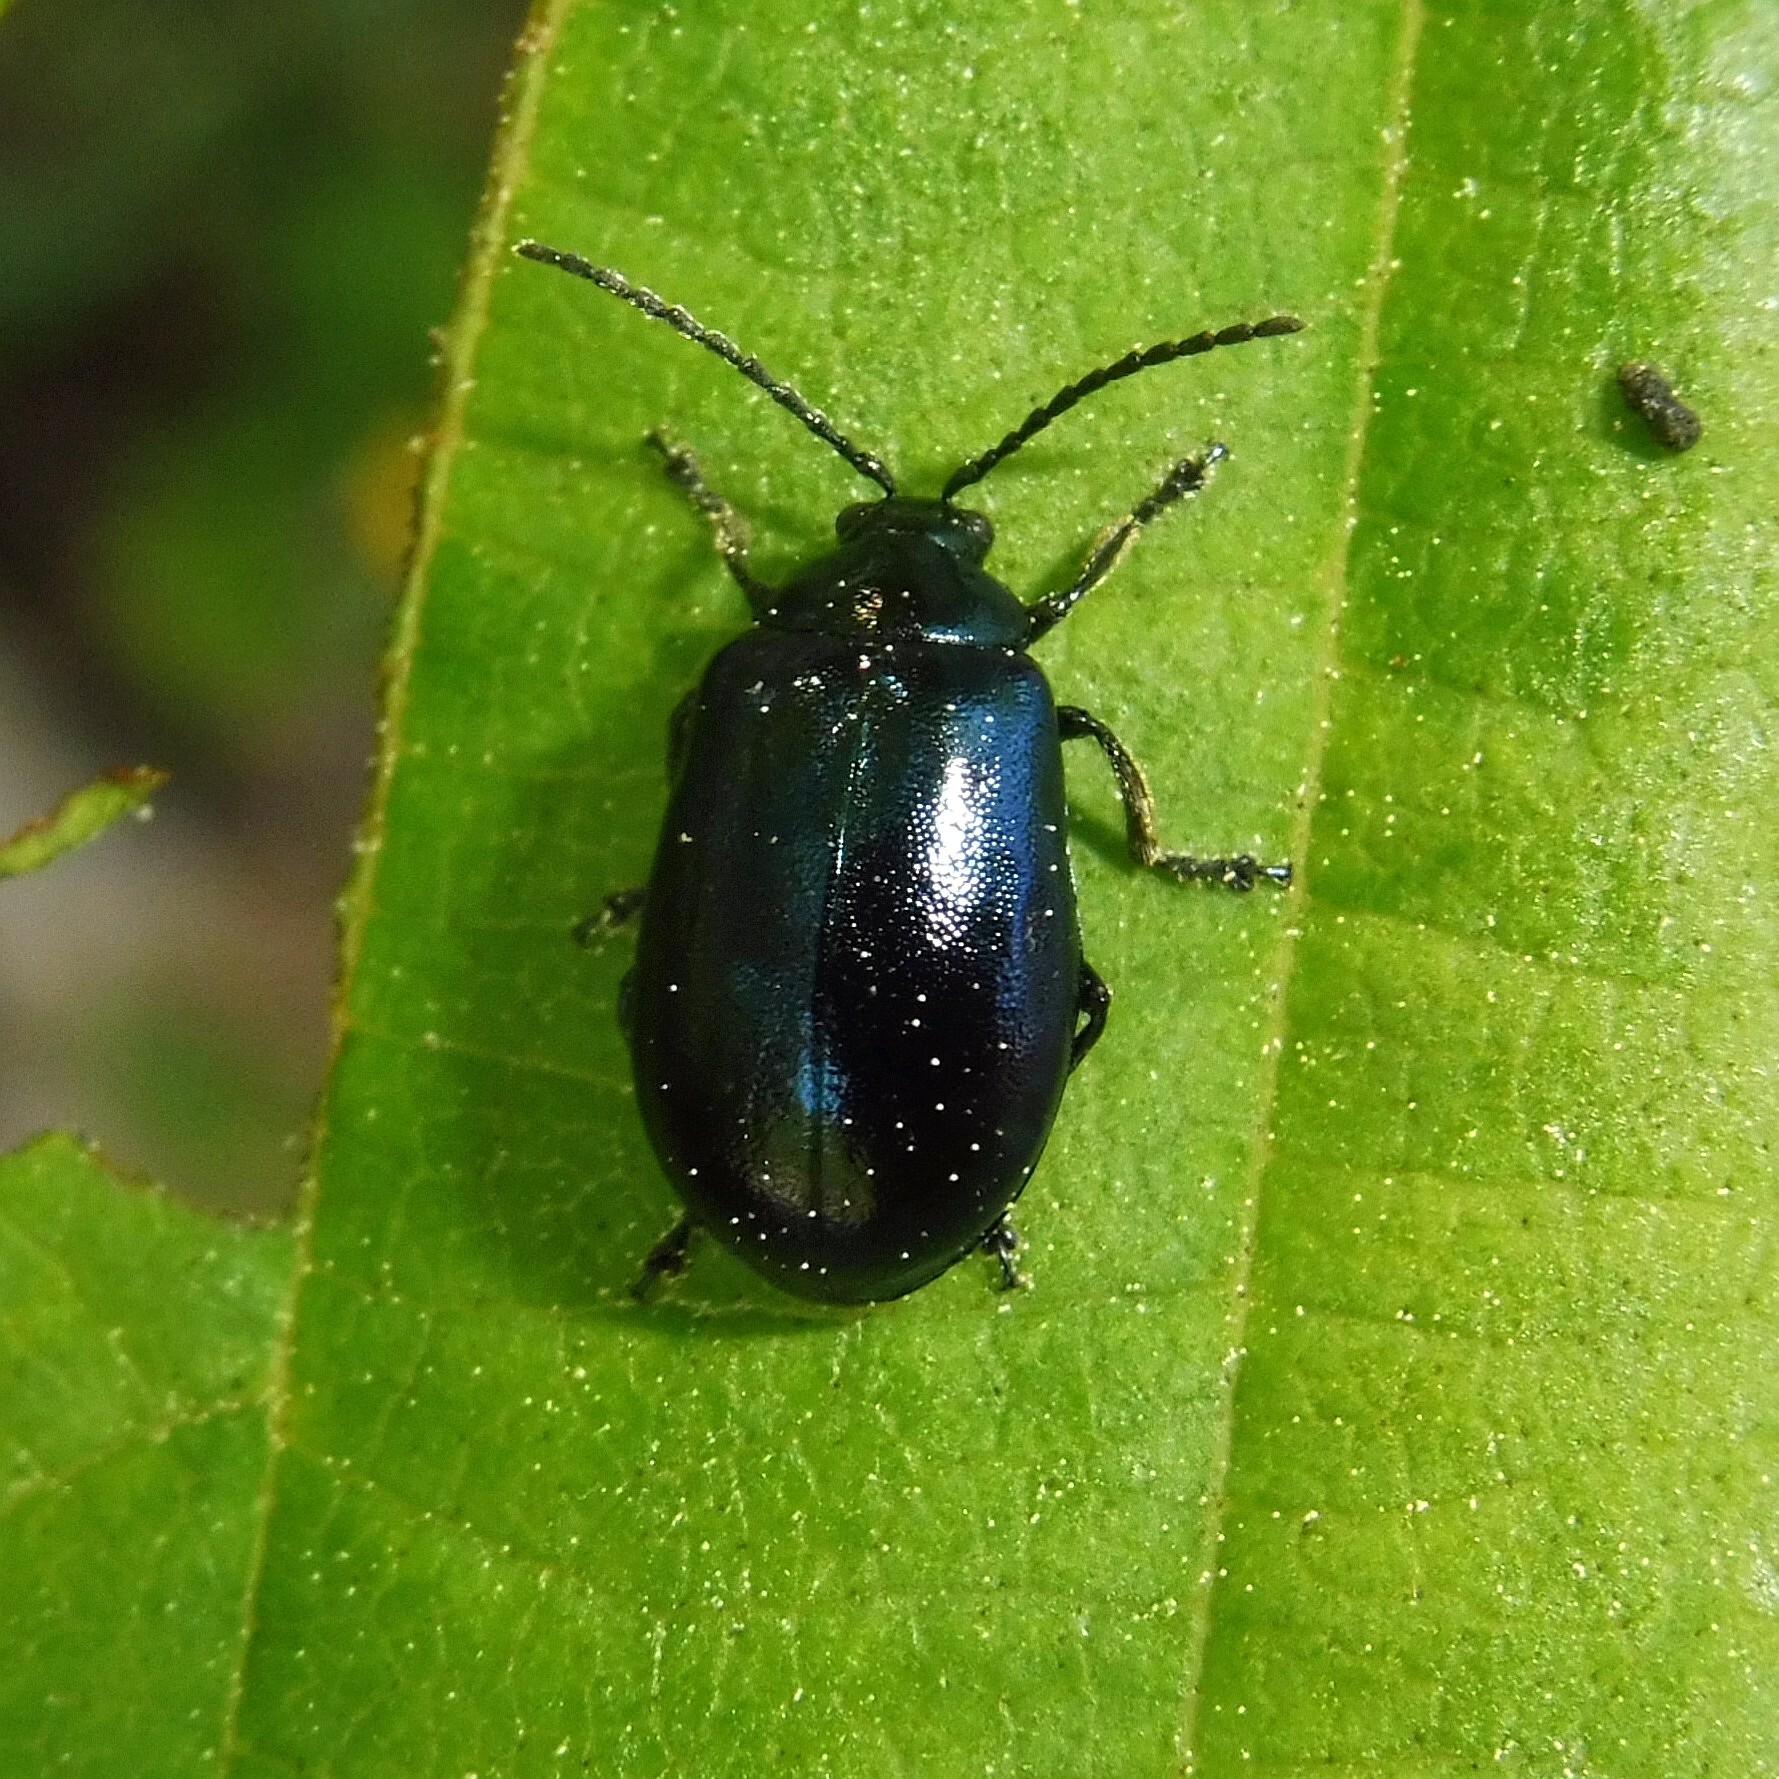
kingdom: Animalia
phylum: Arthropoda
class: Insecta
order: Coleoptera
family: Chrysomelidae
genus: Agelastica
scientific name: Agelastica alni
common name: Alder leaf beetle
